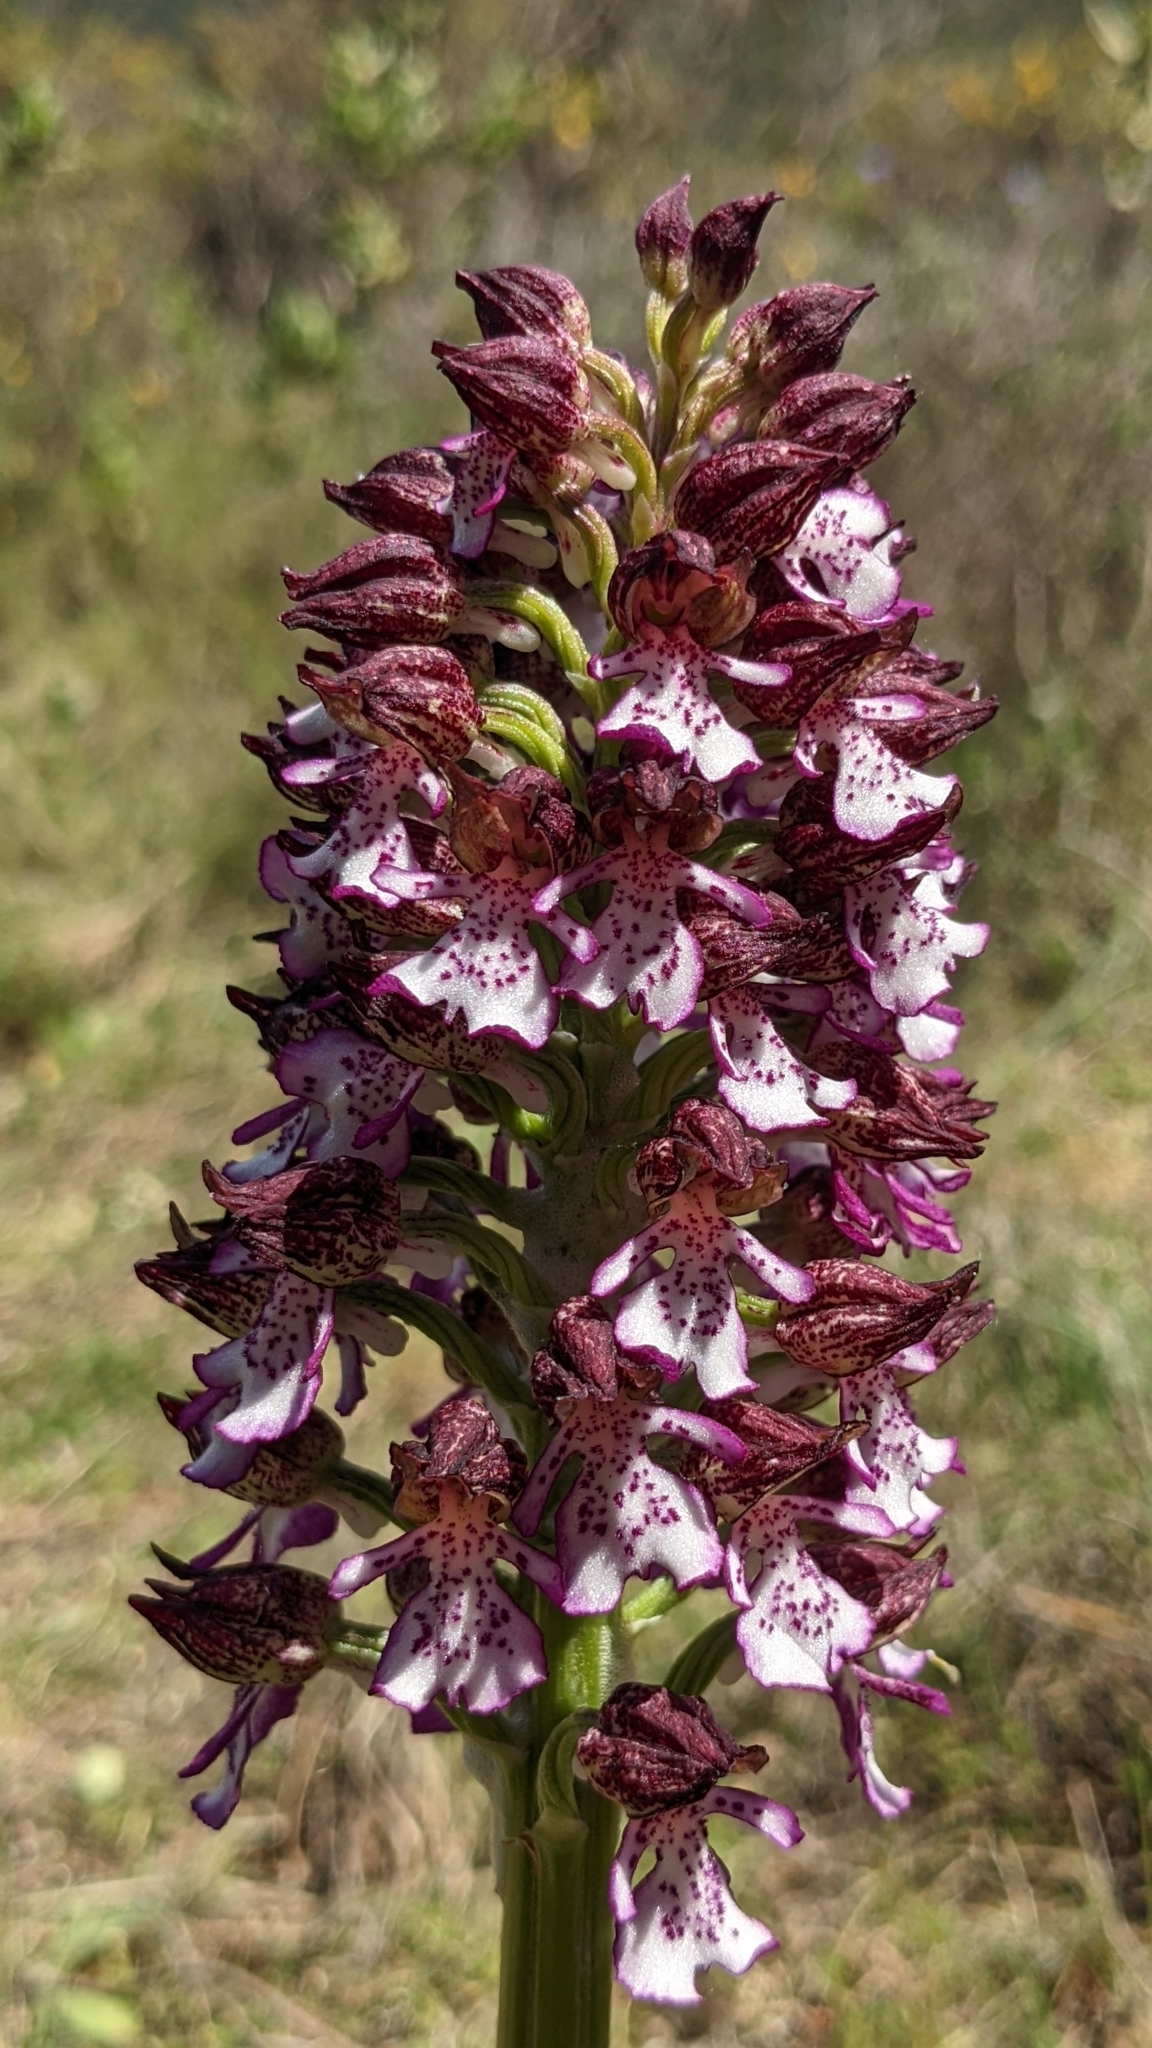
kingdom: Plantae
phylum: Tracheophyta
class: Liliopsida
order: Asparagales
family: Orchidaceae
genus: Orchis
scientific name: Orchis purpurea
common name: Lady orchid
